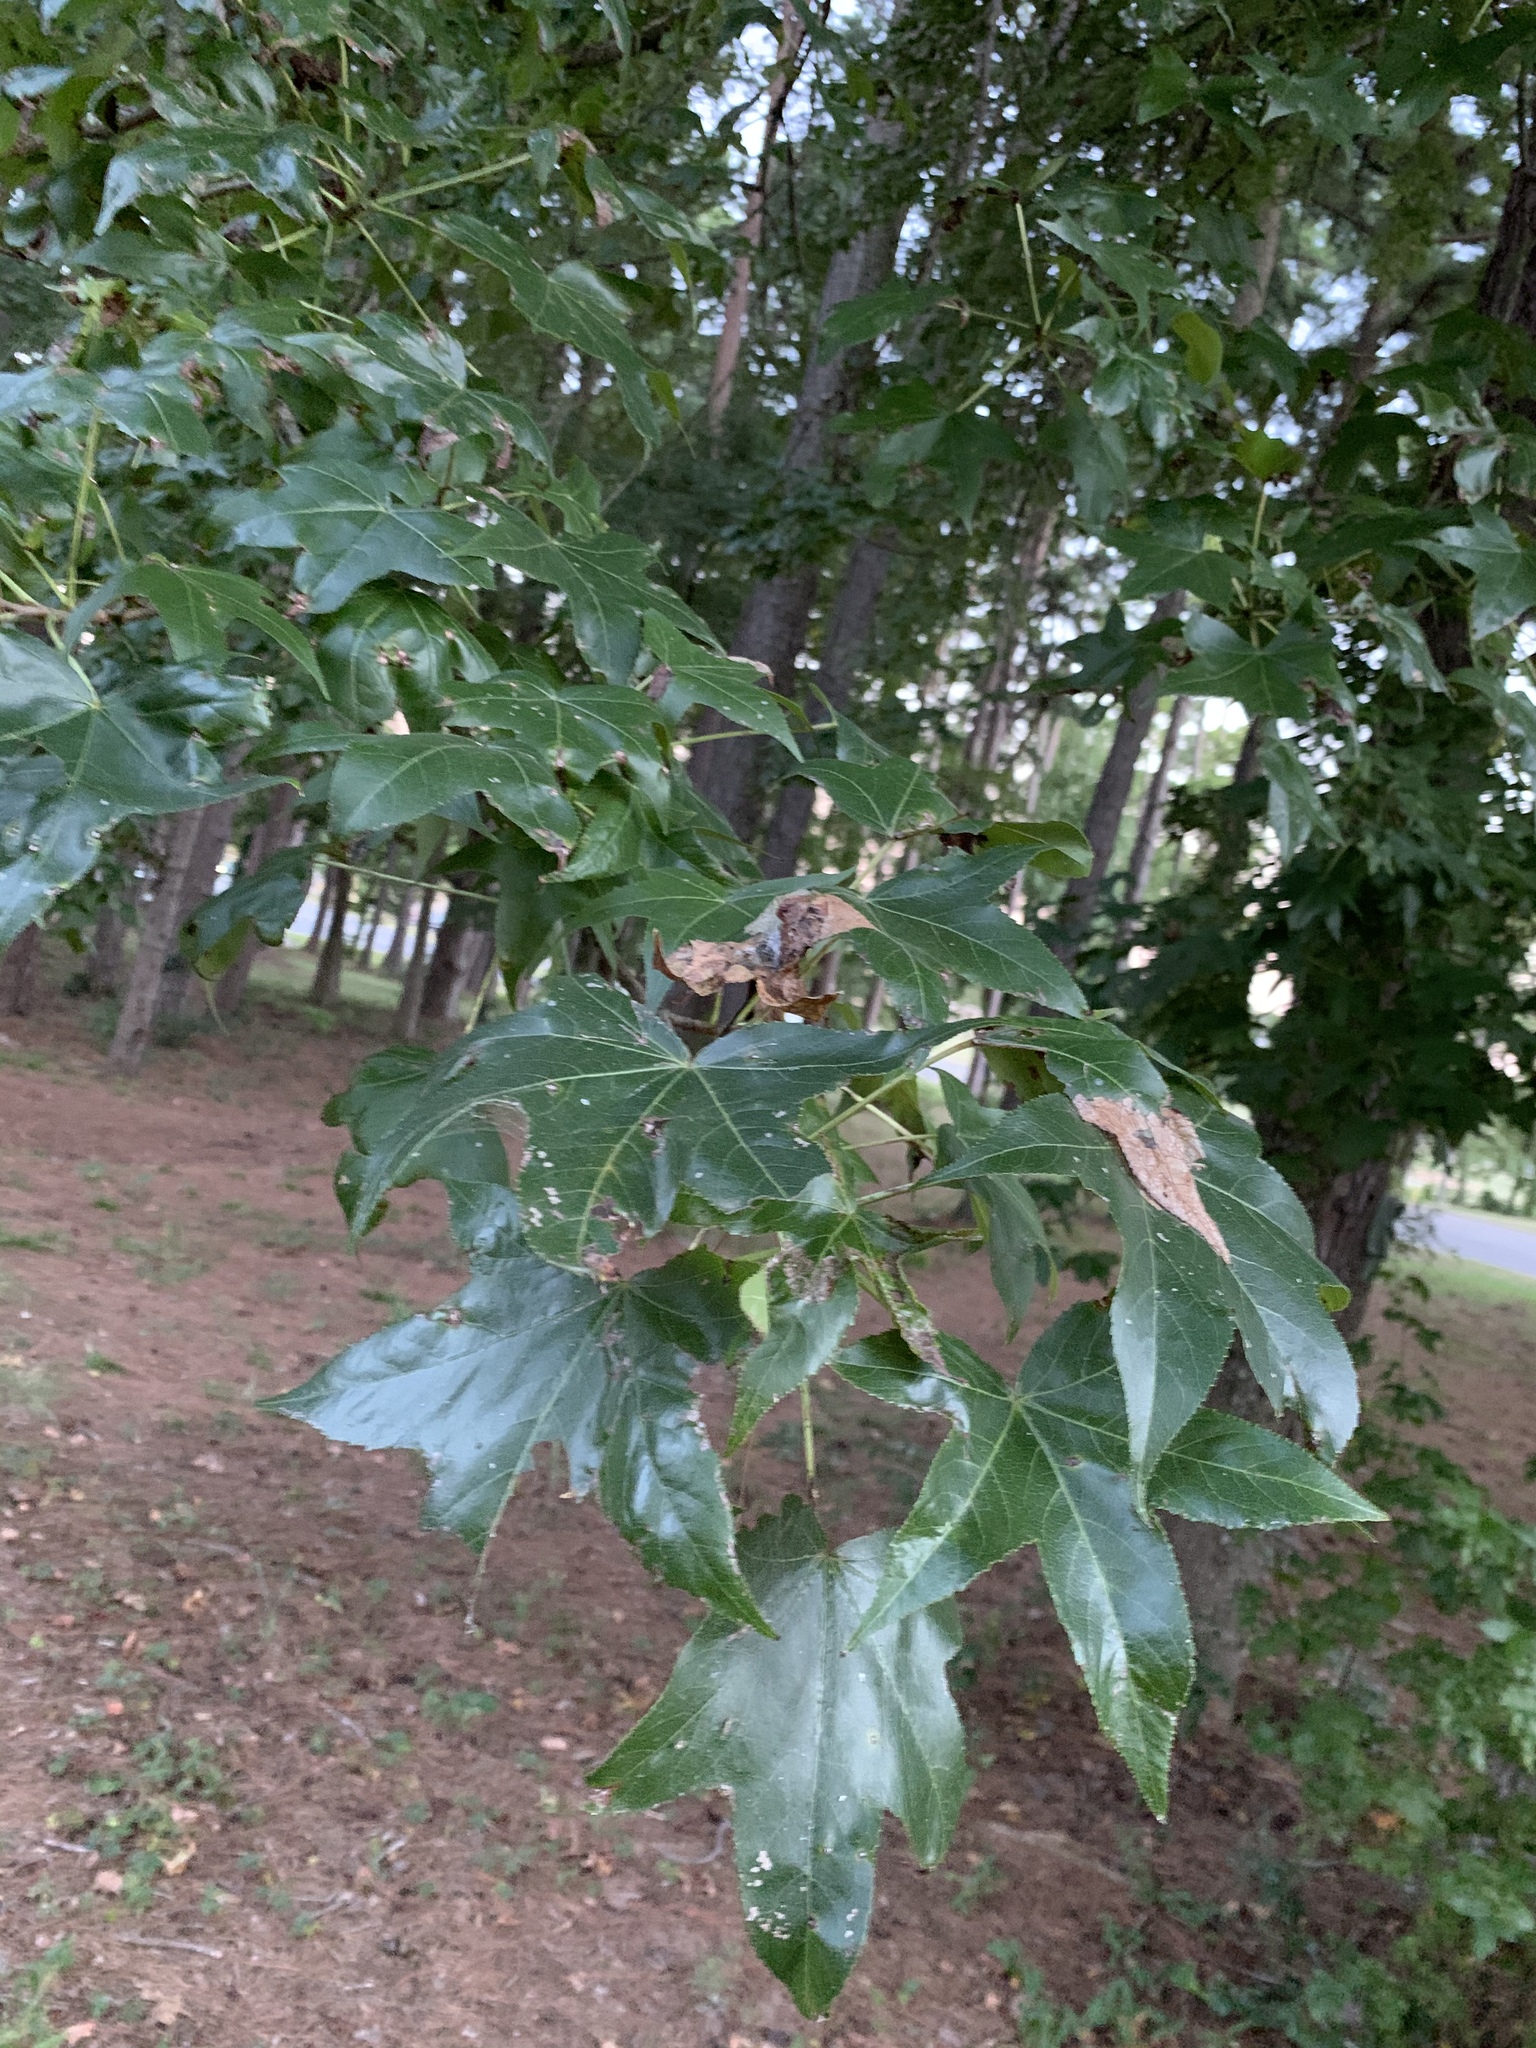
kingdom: Plantae
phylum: Tracheophyta
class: Magnoliopsida
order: Saxifragales
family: Altingiaceae
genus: Liquidambar
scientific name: Liquidambar styraciflua
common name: Sweet gum
